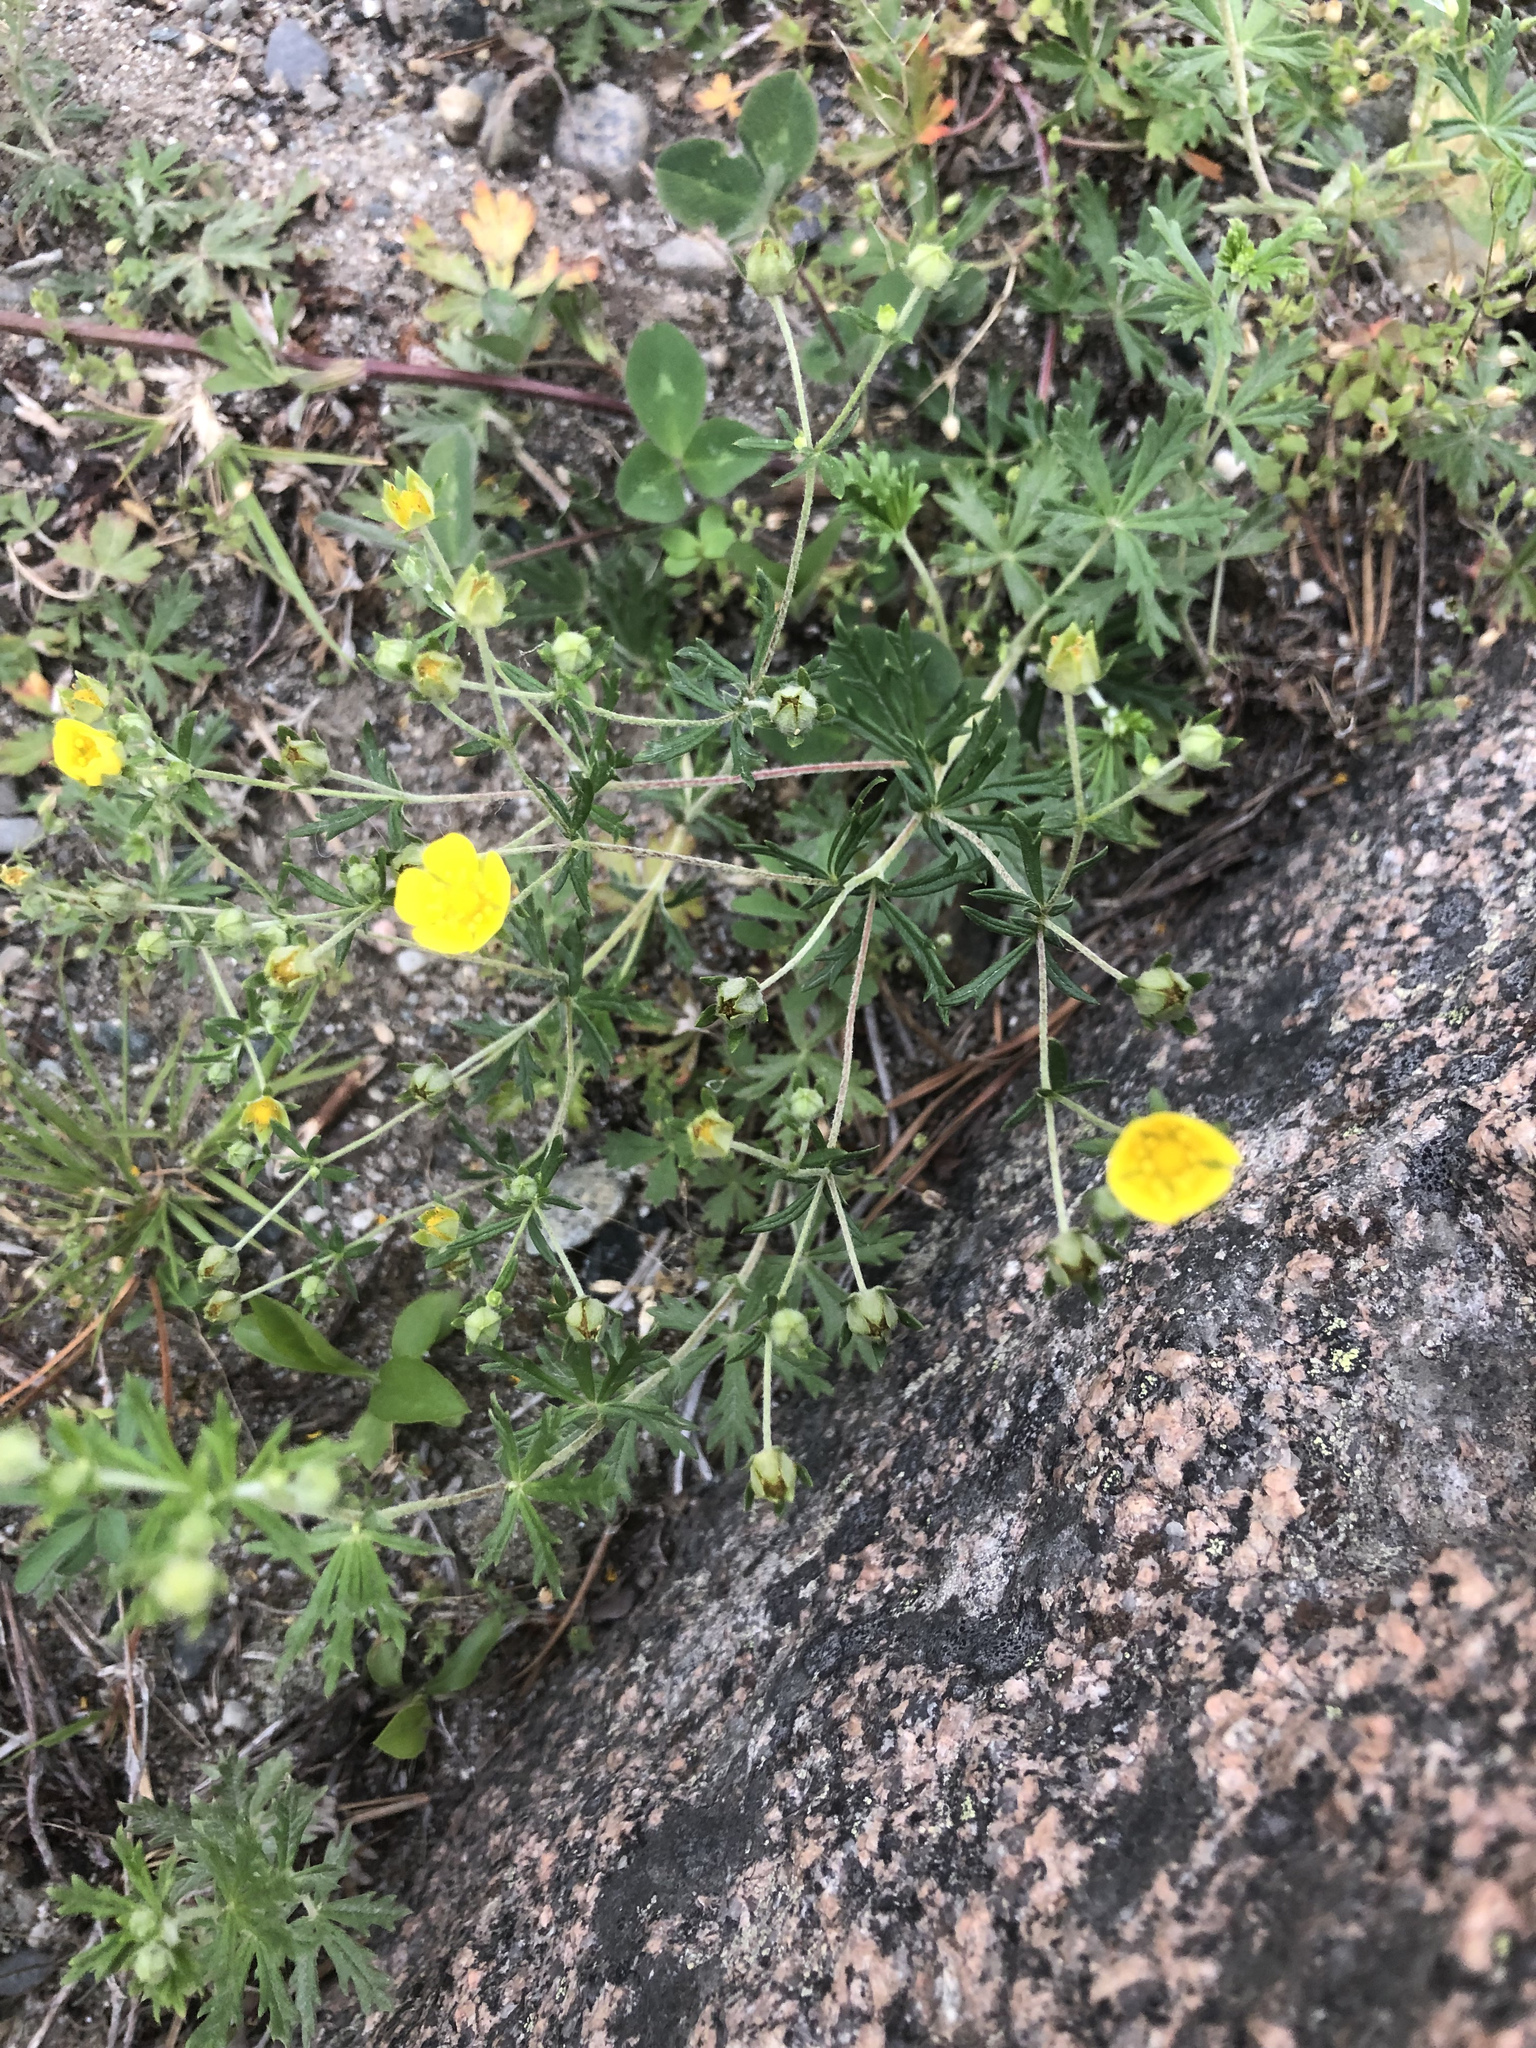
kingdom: Plantae
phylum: Tracheophyta
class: Magnoliopsida
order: Rosales
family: Rosaceae
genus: Potentilla
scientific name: Potentilla argentea
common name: Hoary cinquefoil
